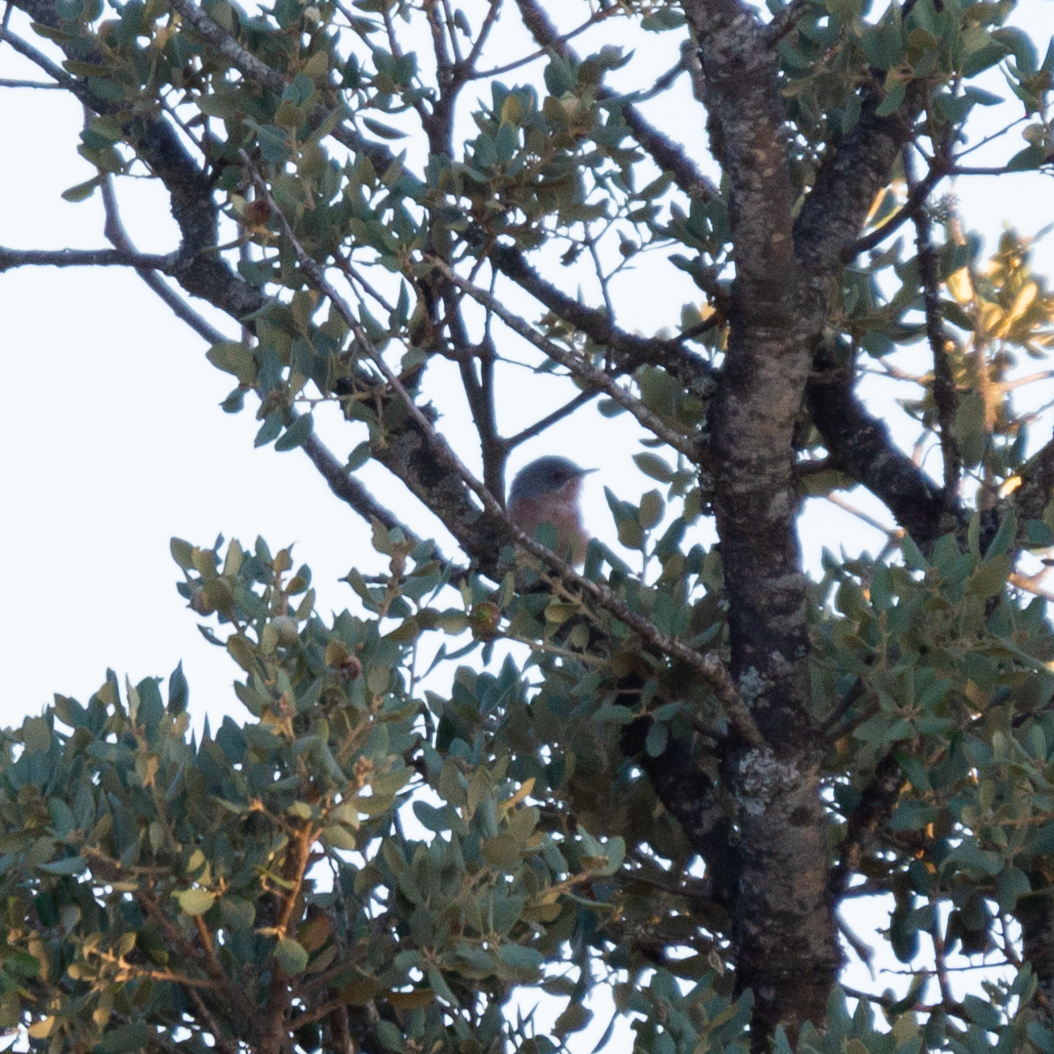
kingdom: Animalia
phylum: Chordata
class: Aves
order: Passeriformes
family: Sylviidae
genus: Curruca
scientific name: Curruca iberiae
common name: Western subalpine warbler
